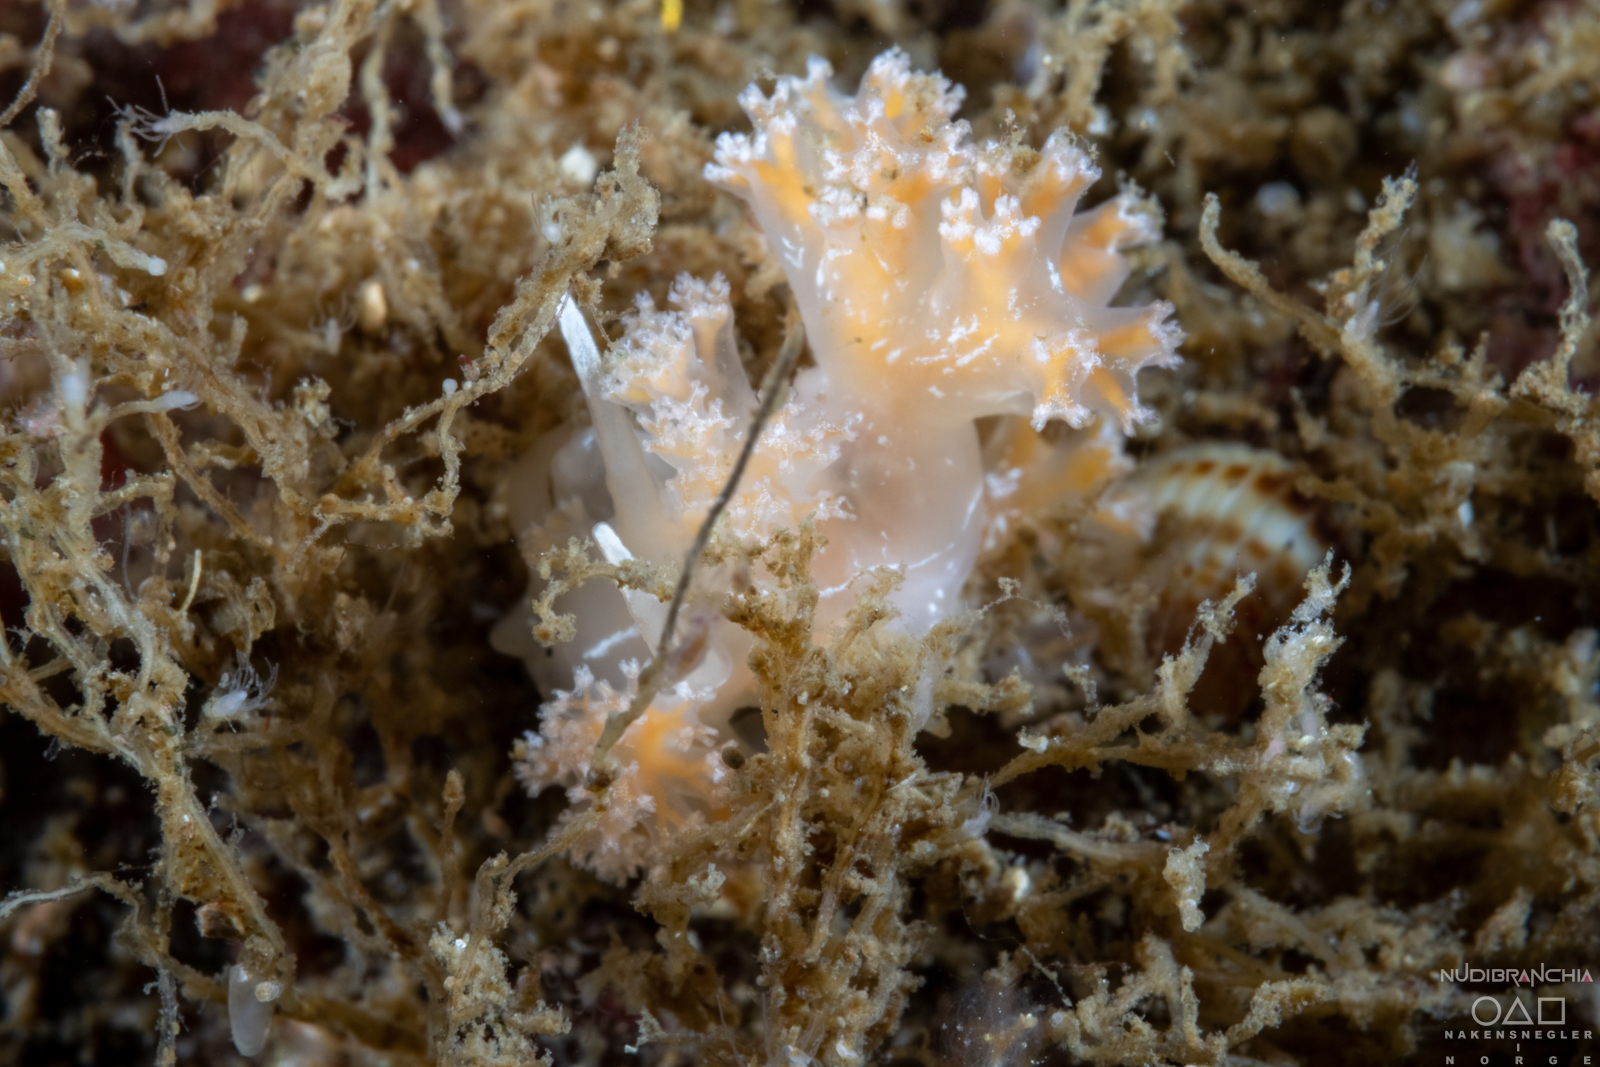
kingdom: Animalia
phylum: Mollusca
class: Gastropoda
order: Nudibranchia
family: Heroidae
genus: Hero
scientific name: Hero formosa
